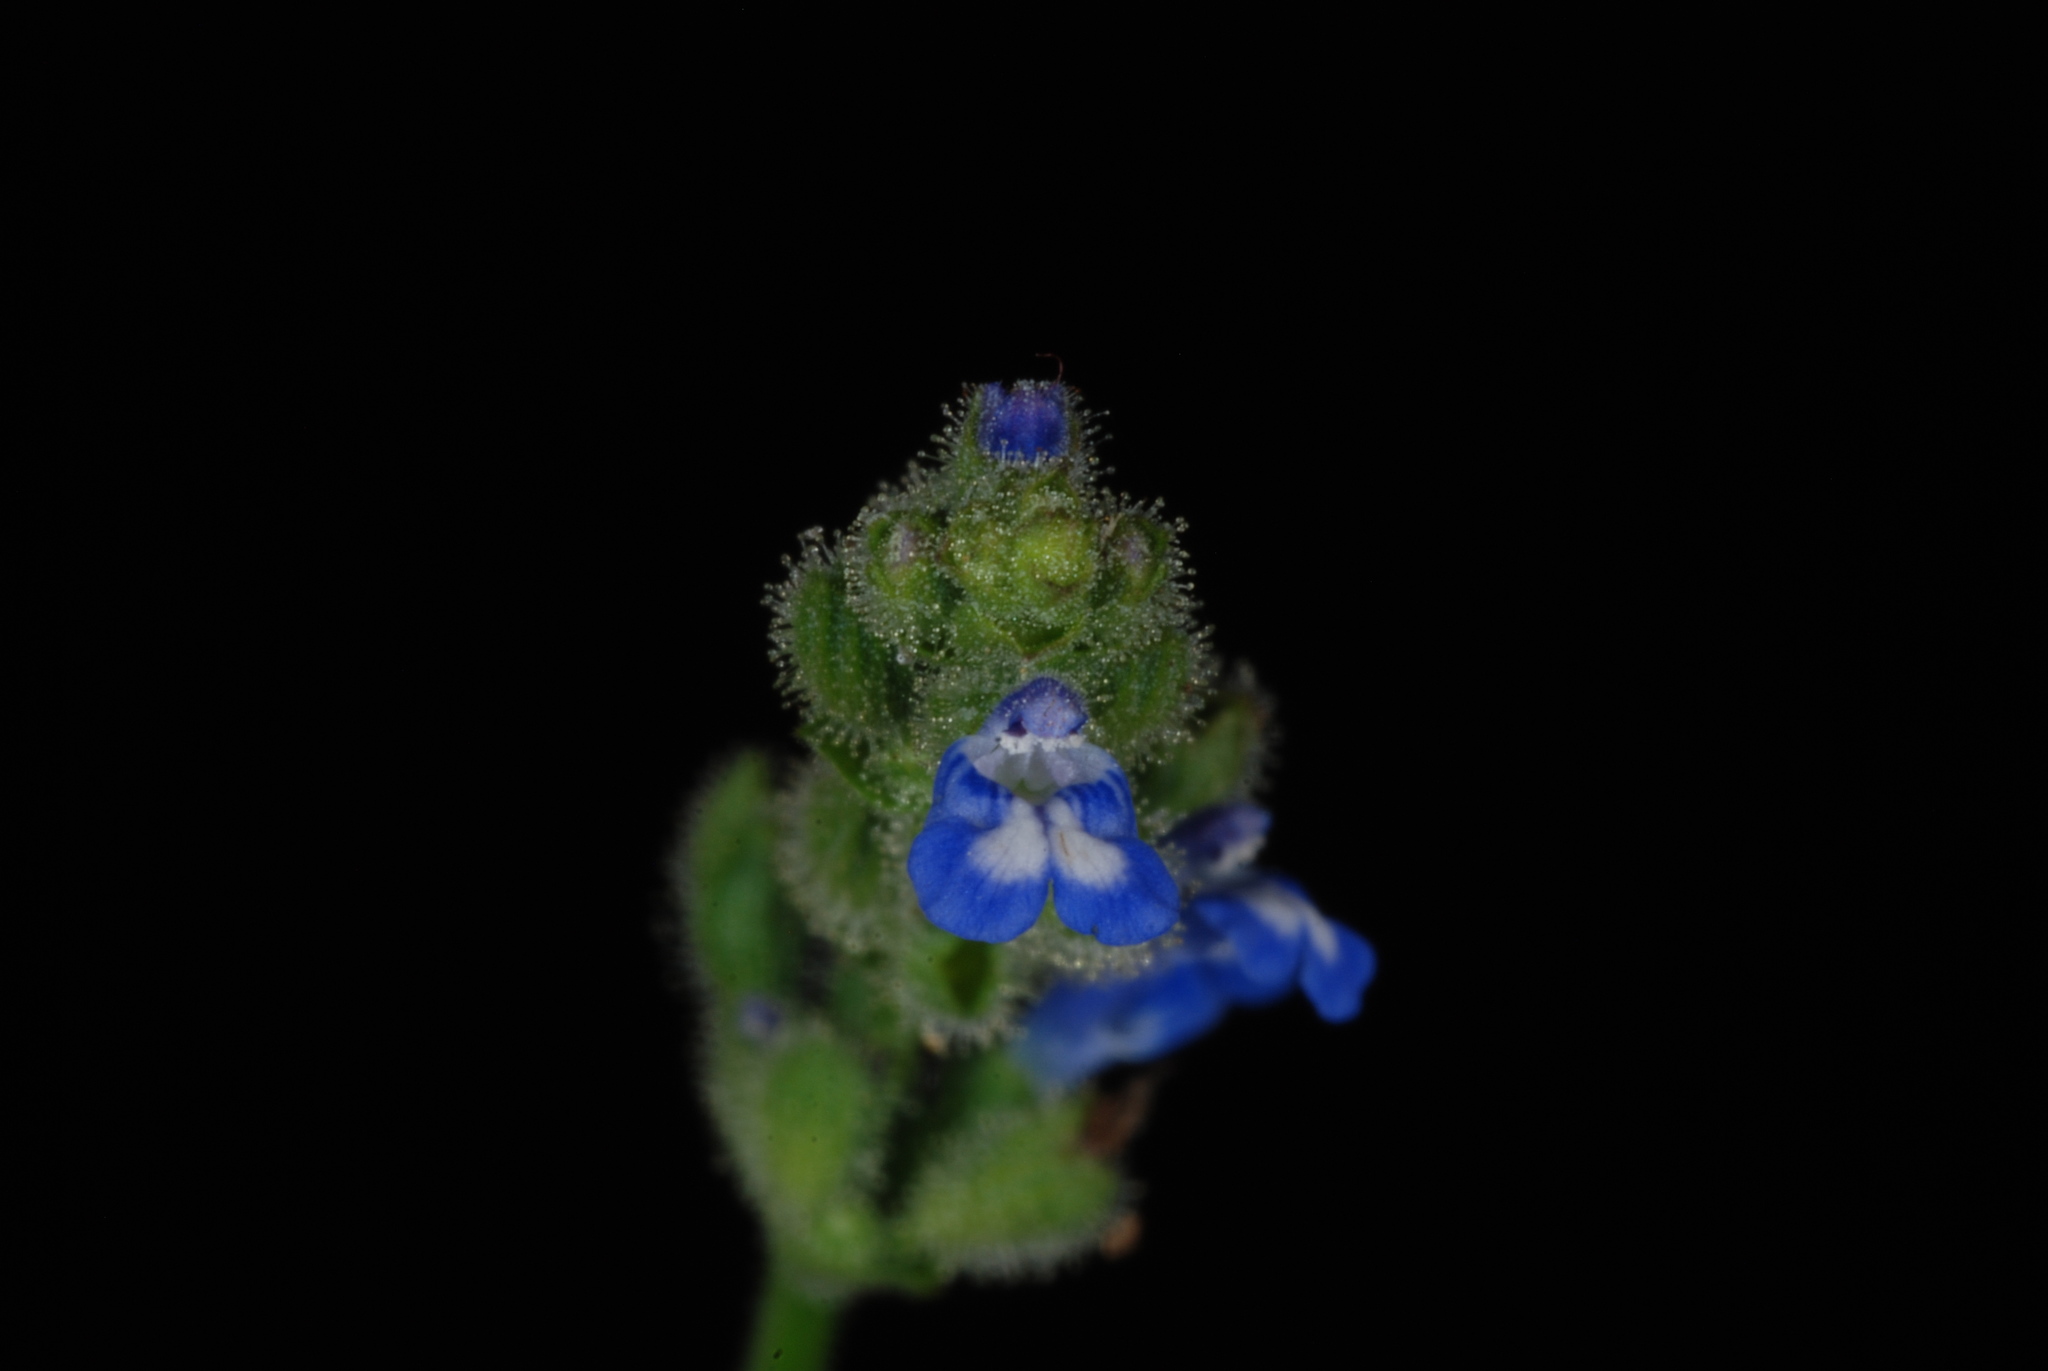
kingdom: Plantae
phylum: Tracheophyta
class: Magnoliopsida
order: Lamiales
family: Lamiaceae
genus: Salvia
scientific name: Salvia occidentalis
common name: West indian sage
